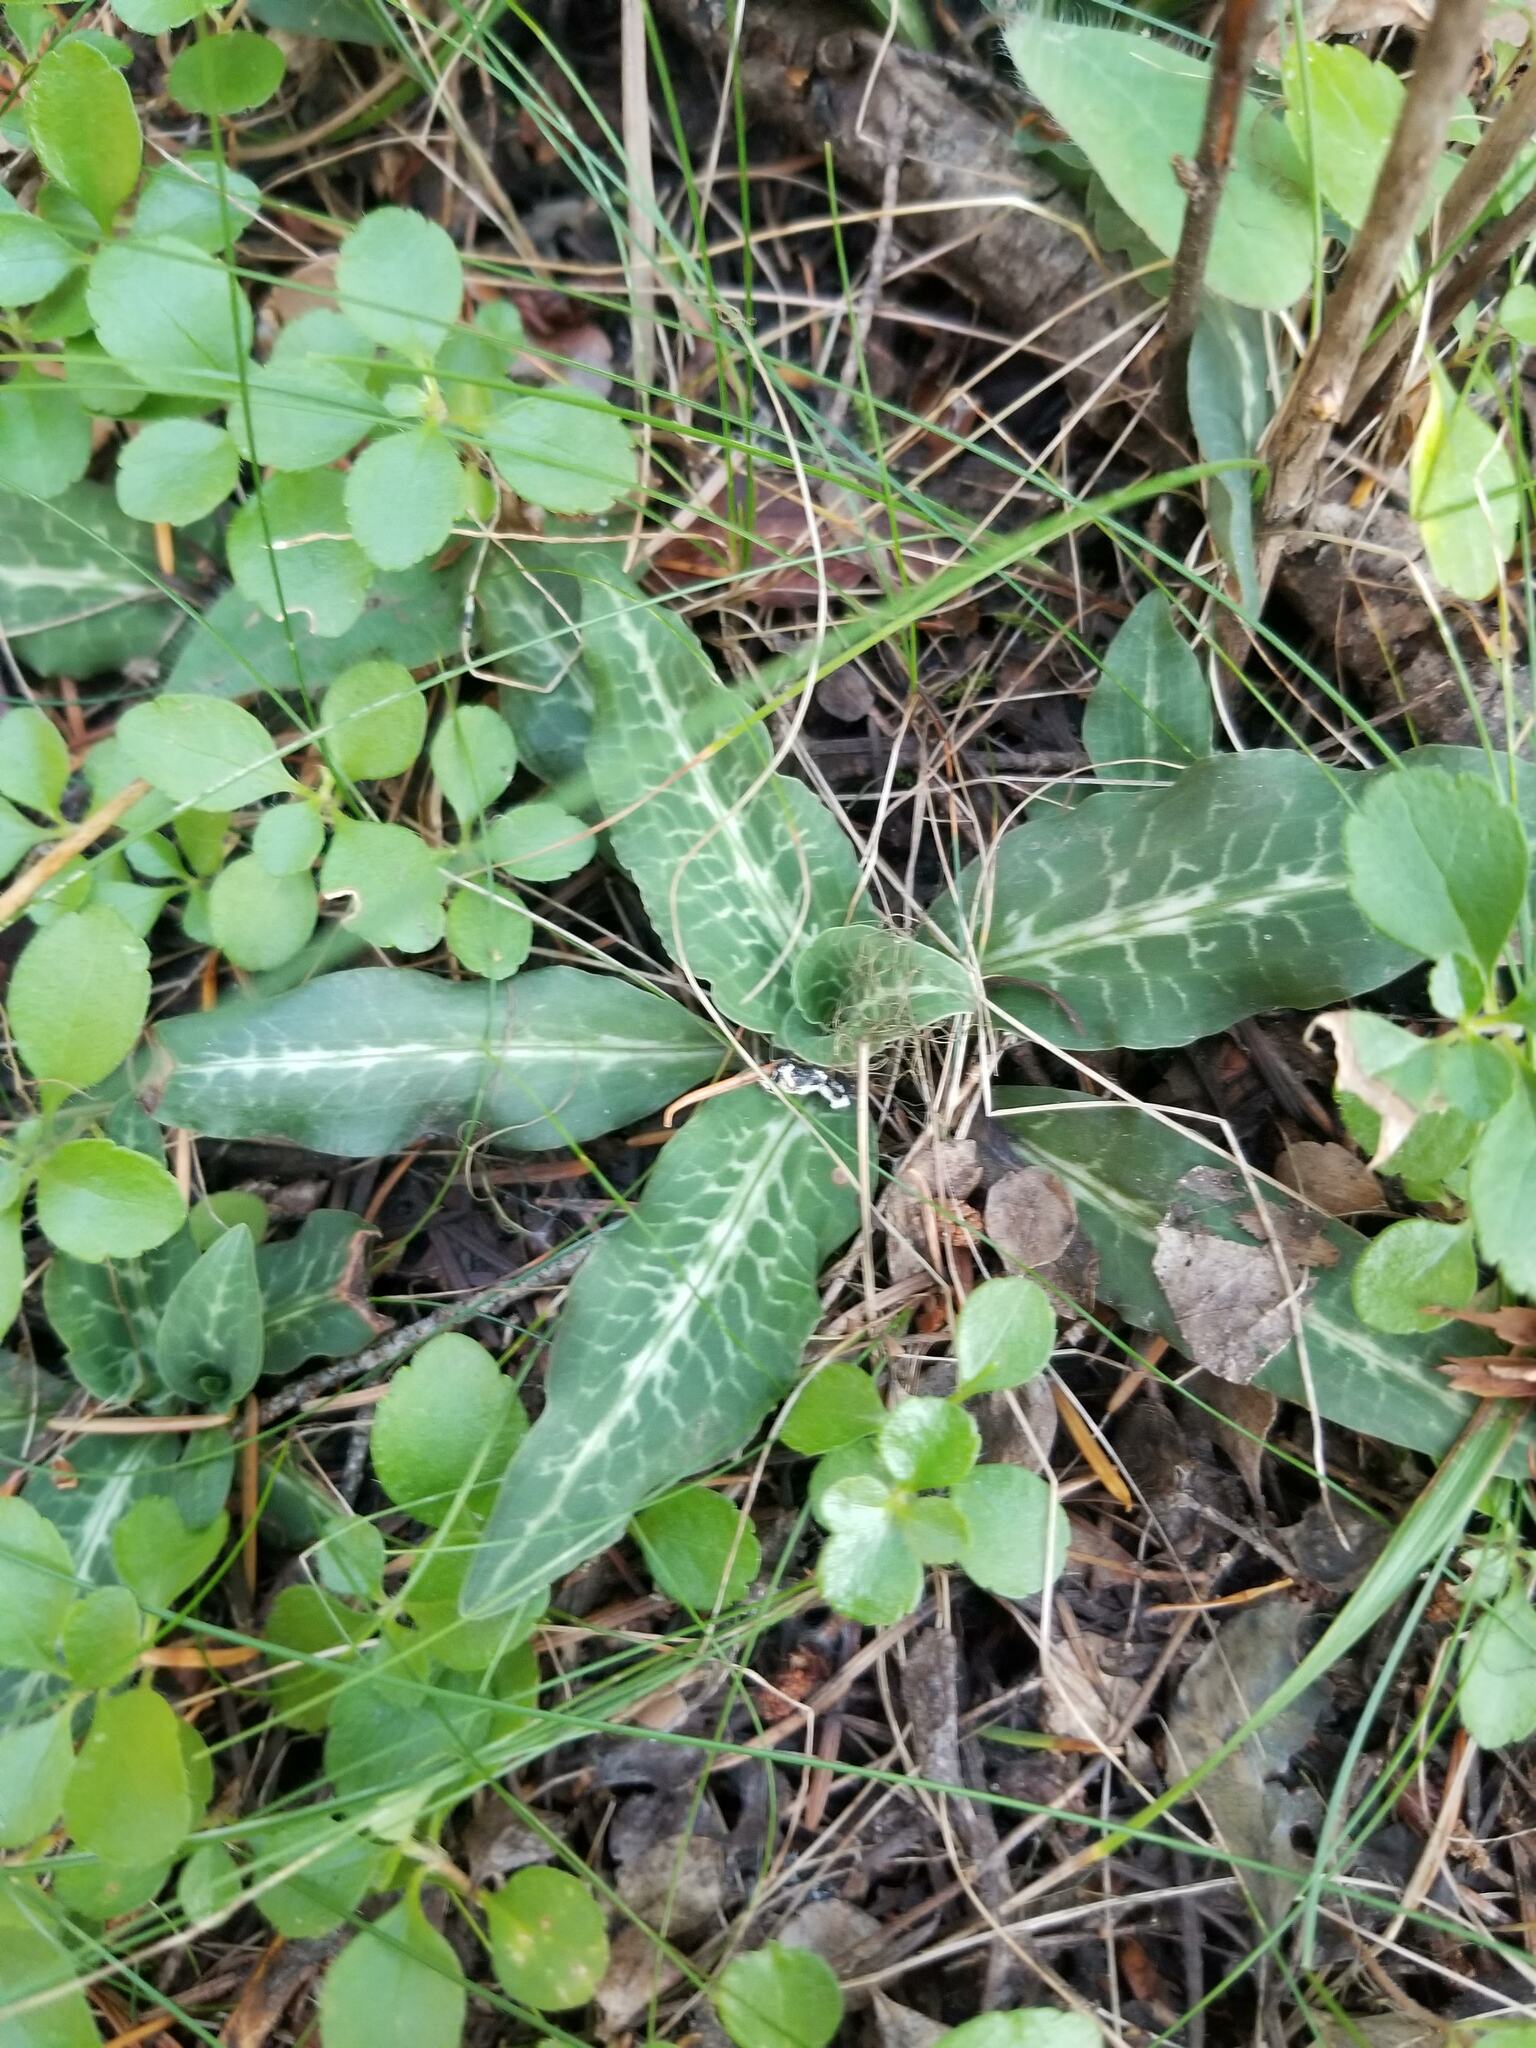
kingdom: Plantae
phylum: Tracheophyta
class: Liliopsida
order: Asparagales
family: Orchidaceae
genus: Goodyera
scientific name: Goodyera oblongifolia
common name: Giant rattlesnake-plantain
